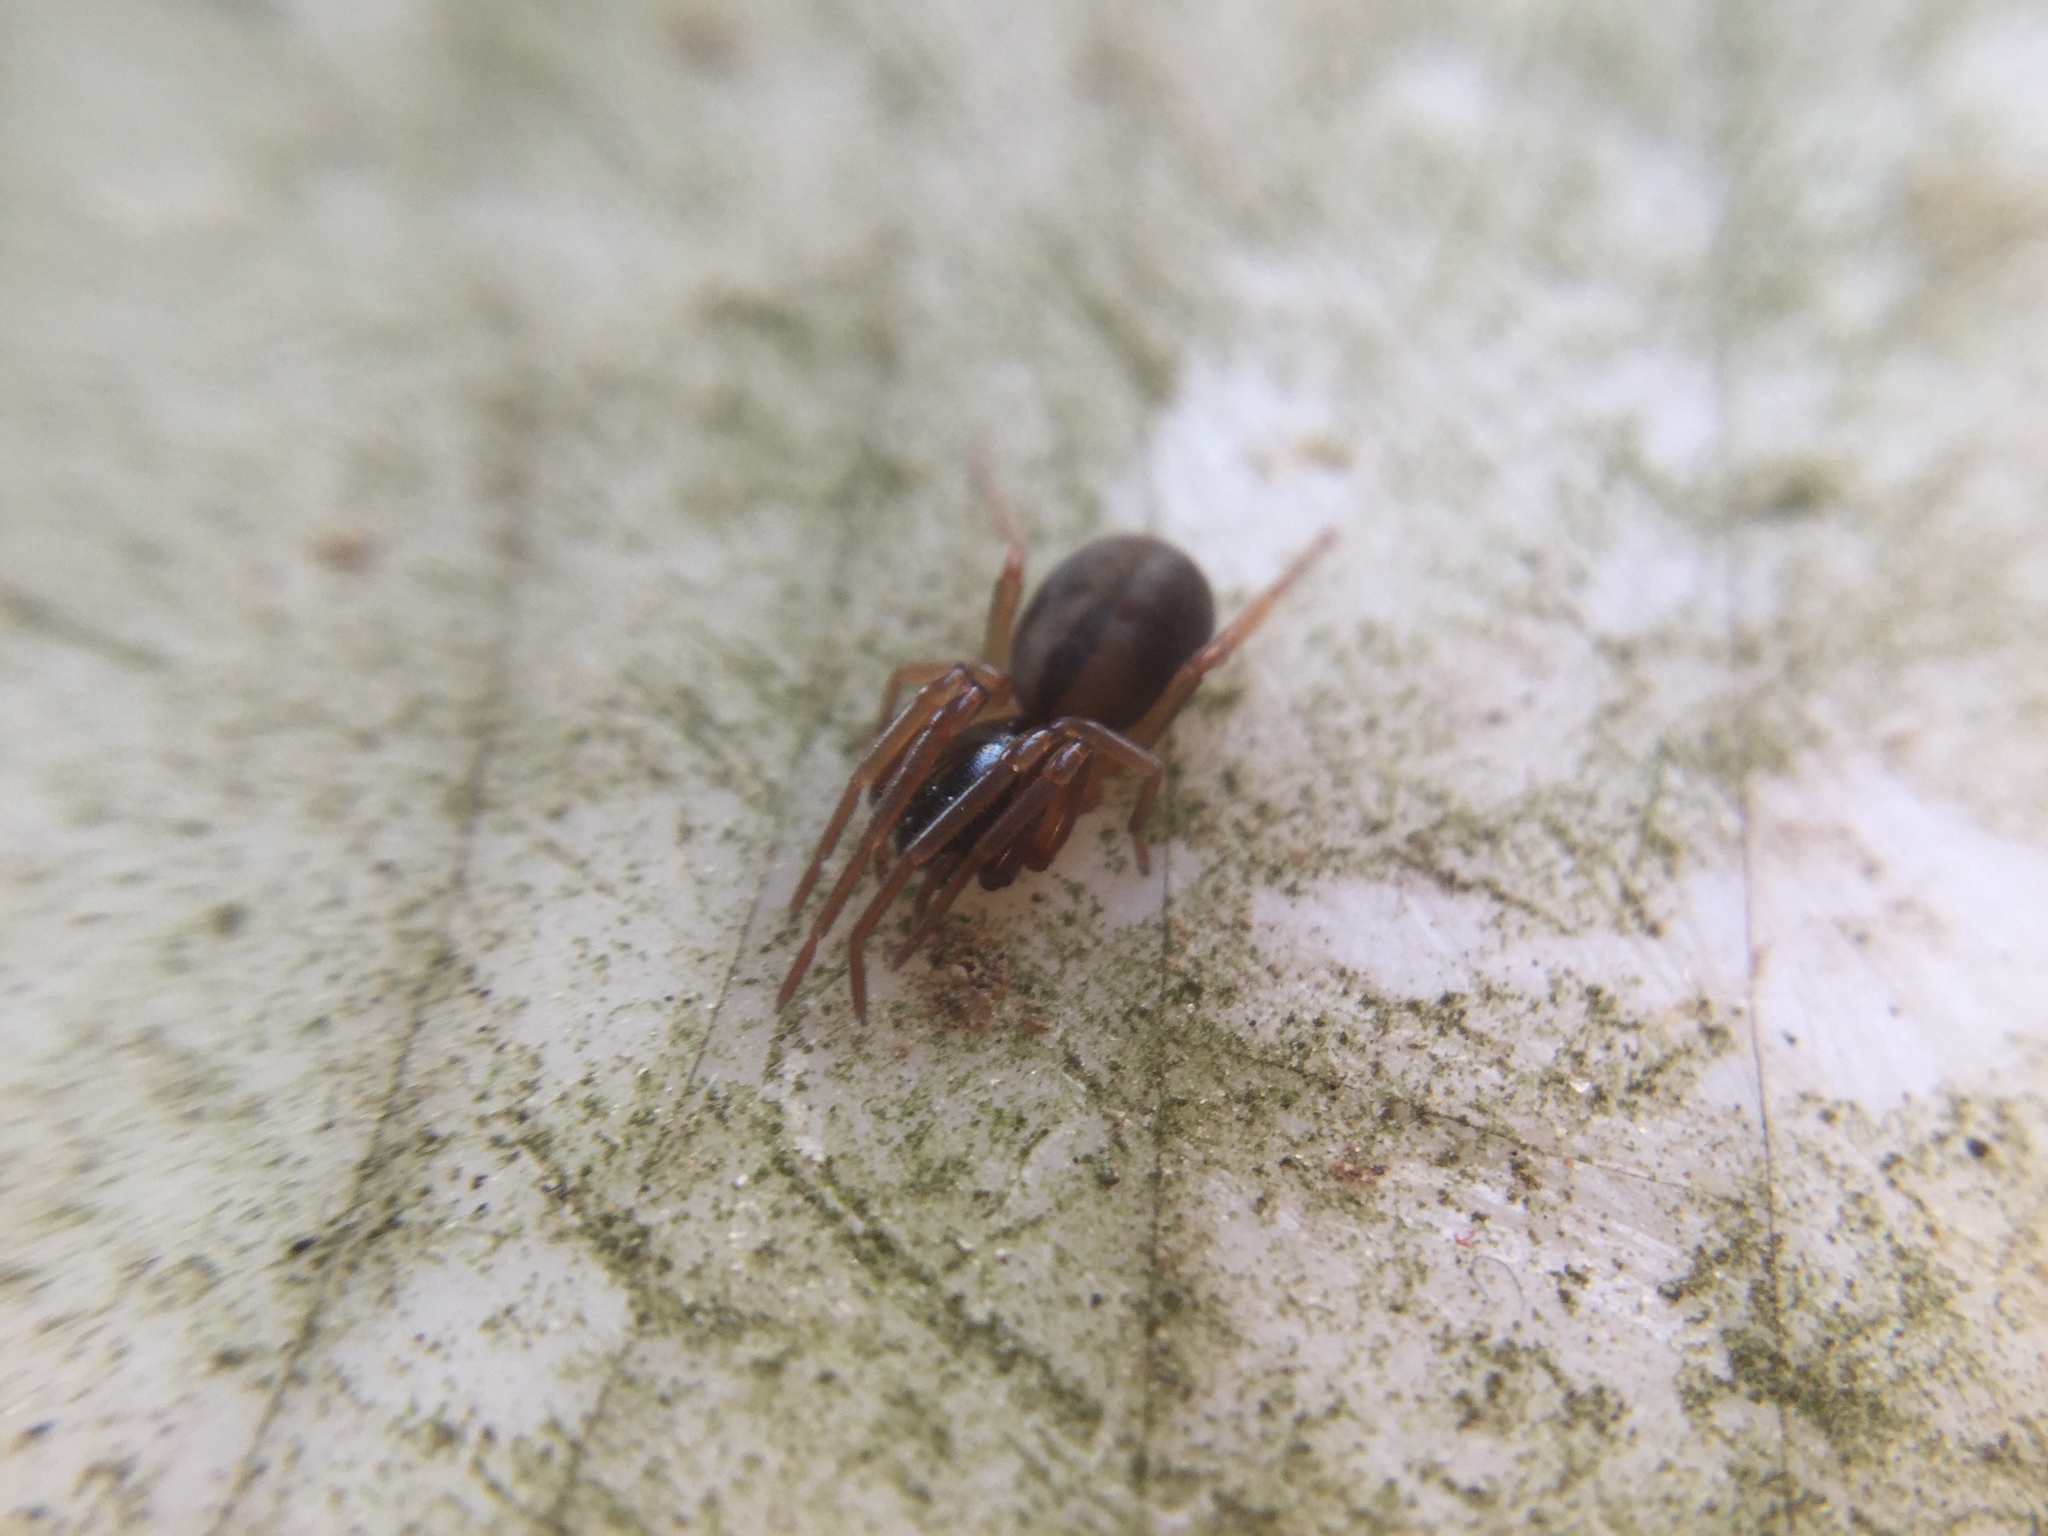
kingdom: Animalia
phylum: Arthropoda
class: Arachnida
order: Araneae
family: Trachelidae
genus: Meriola
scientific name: Meriola decepta
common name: Corinnid sac spiders
